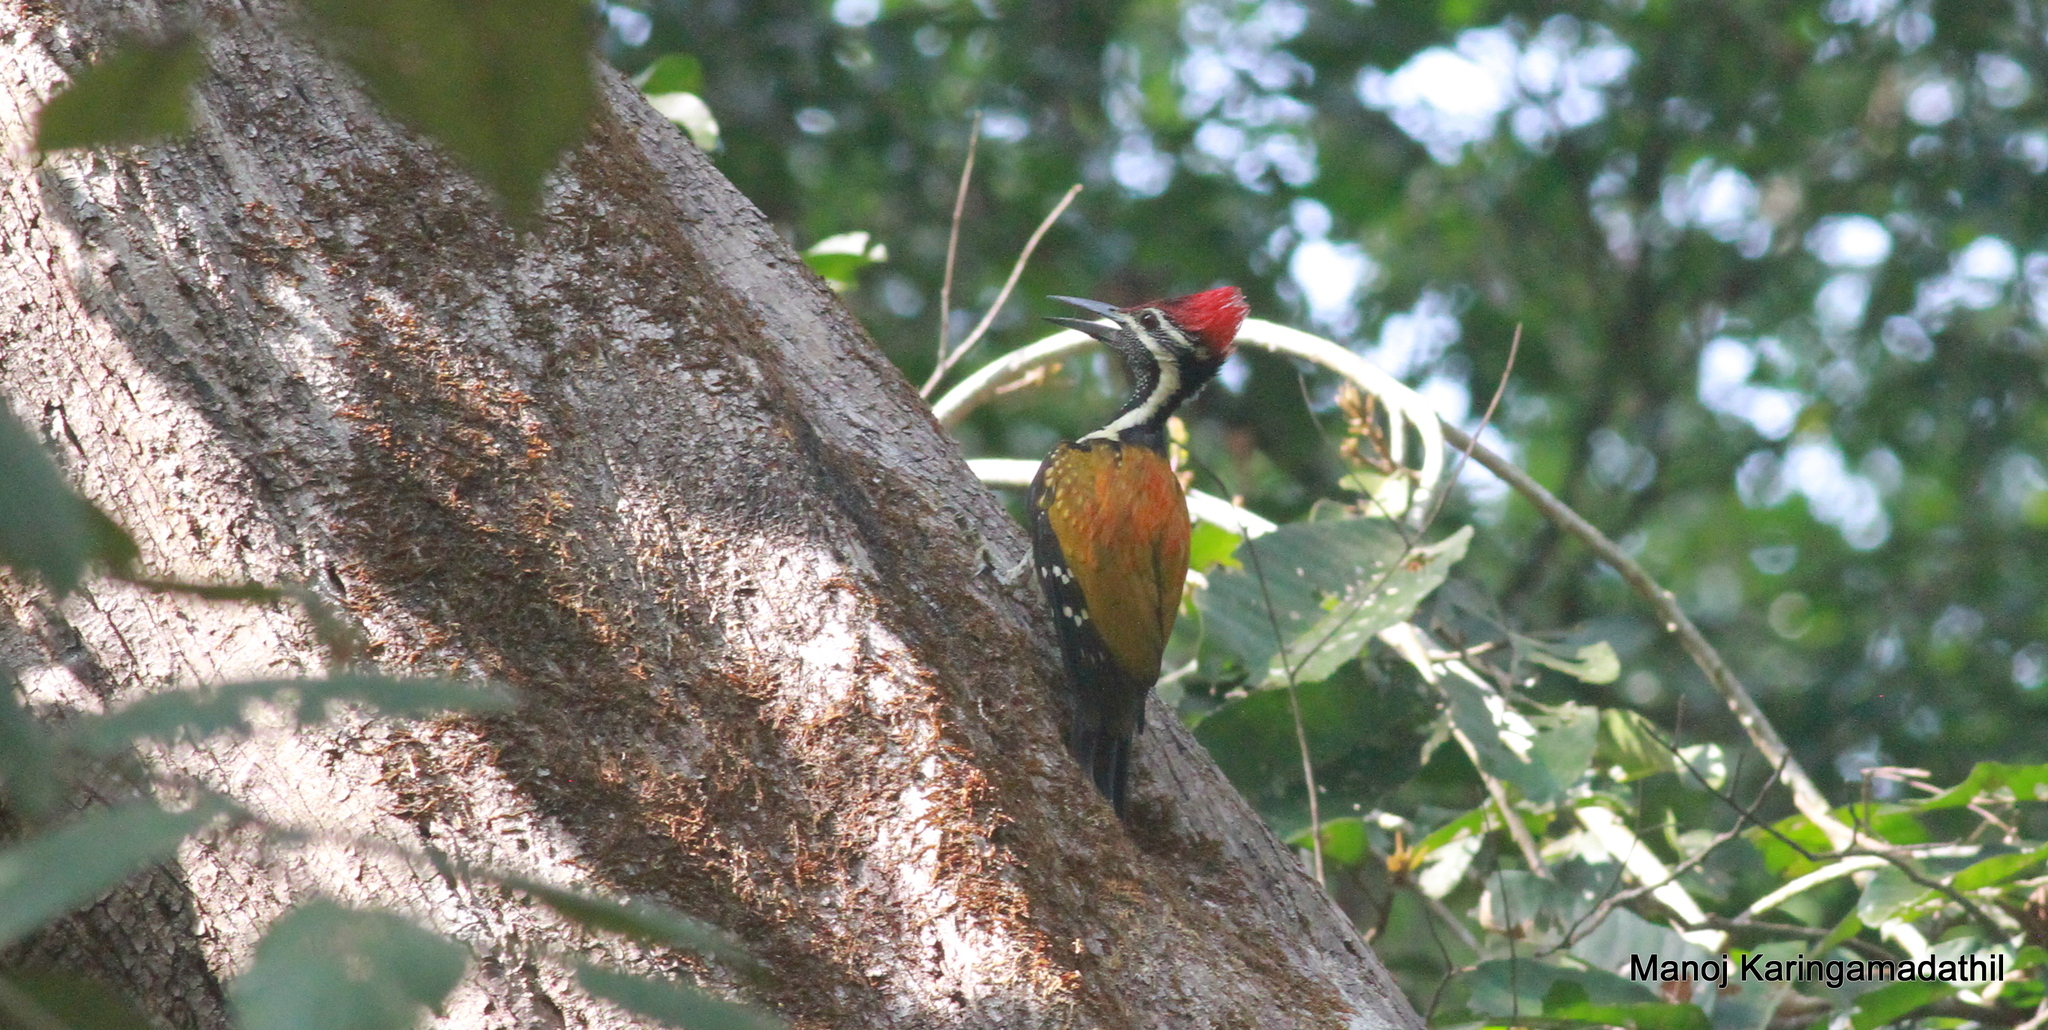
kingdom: Animalia
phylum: Chordata
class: Aves
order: Piciformes
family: Picidae
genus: Dinopium
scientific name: Dinopium benghalense
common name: Black-rumped flameback
